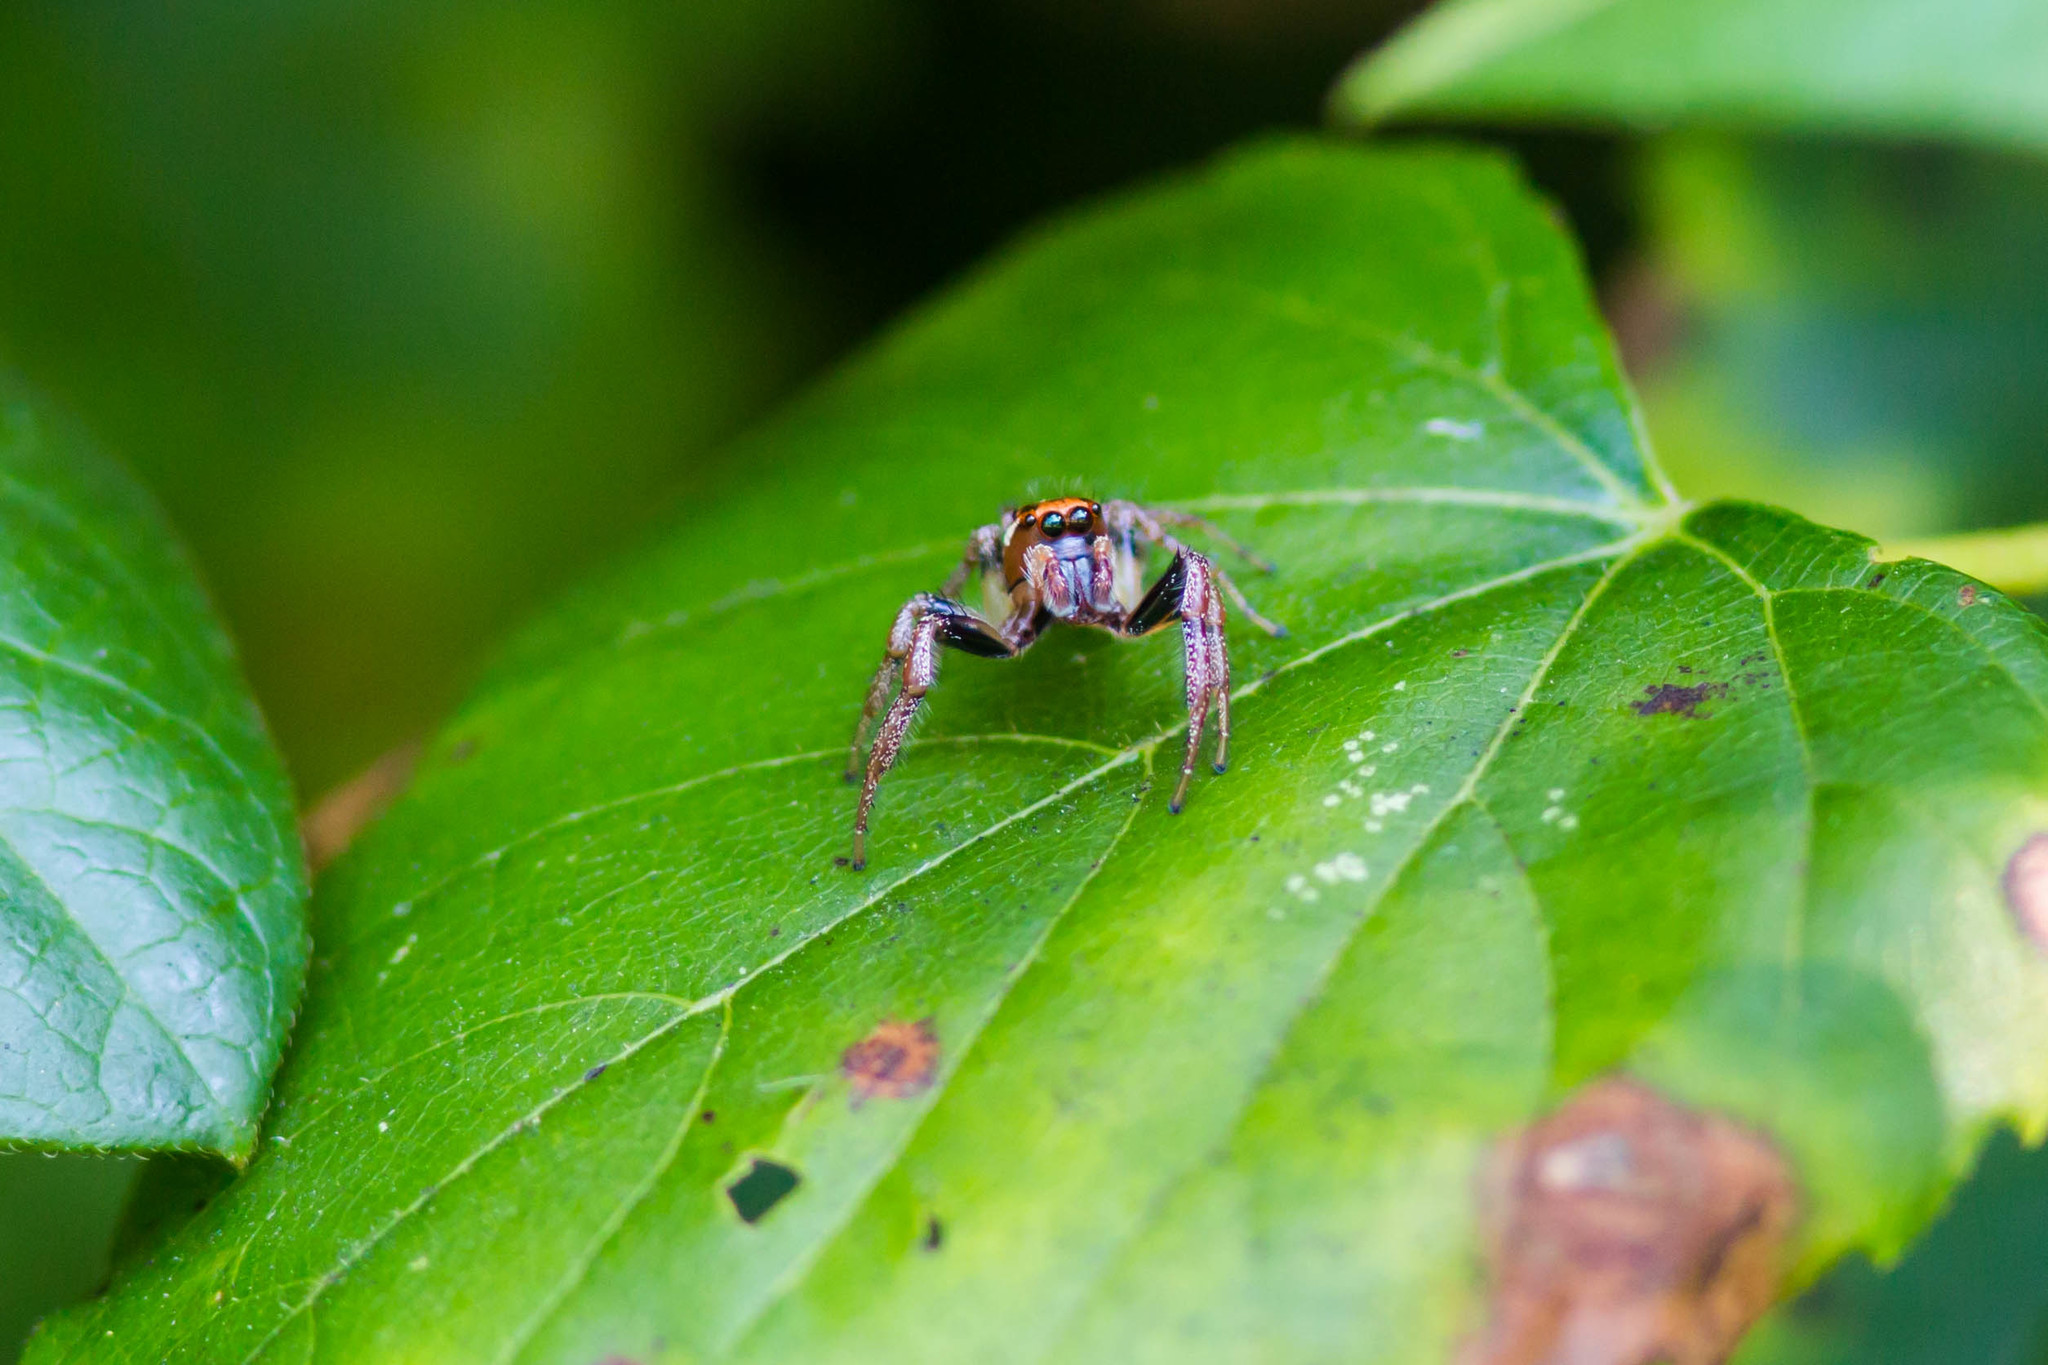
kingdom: Animalia
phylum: Arthropoda
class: Arachnida
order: Araneae
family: Salticidae
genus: Colonus
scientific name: Colonus sylvanus
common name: Jumping spiders
